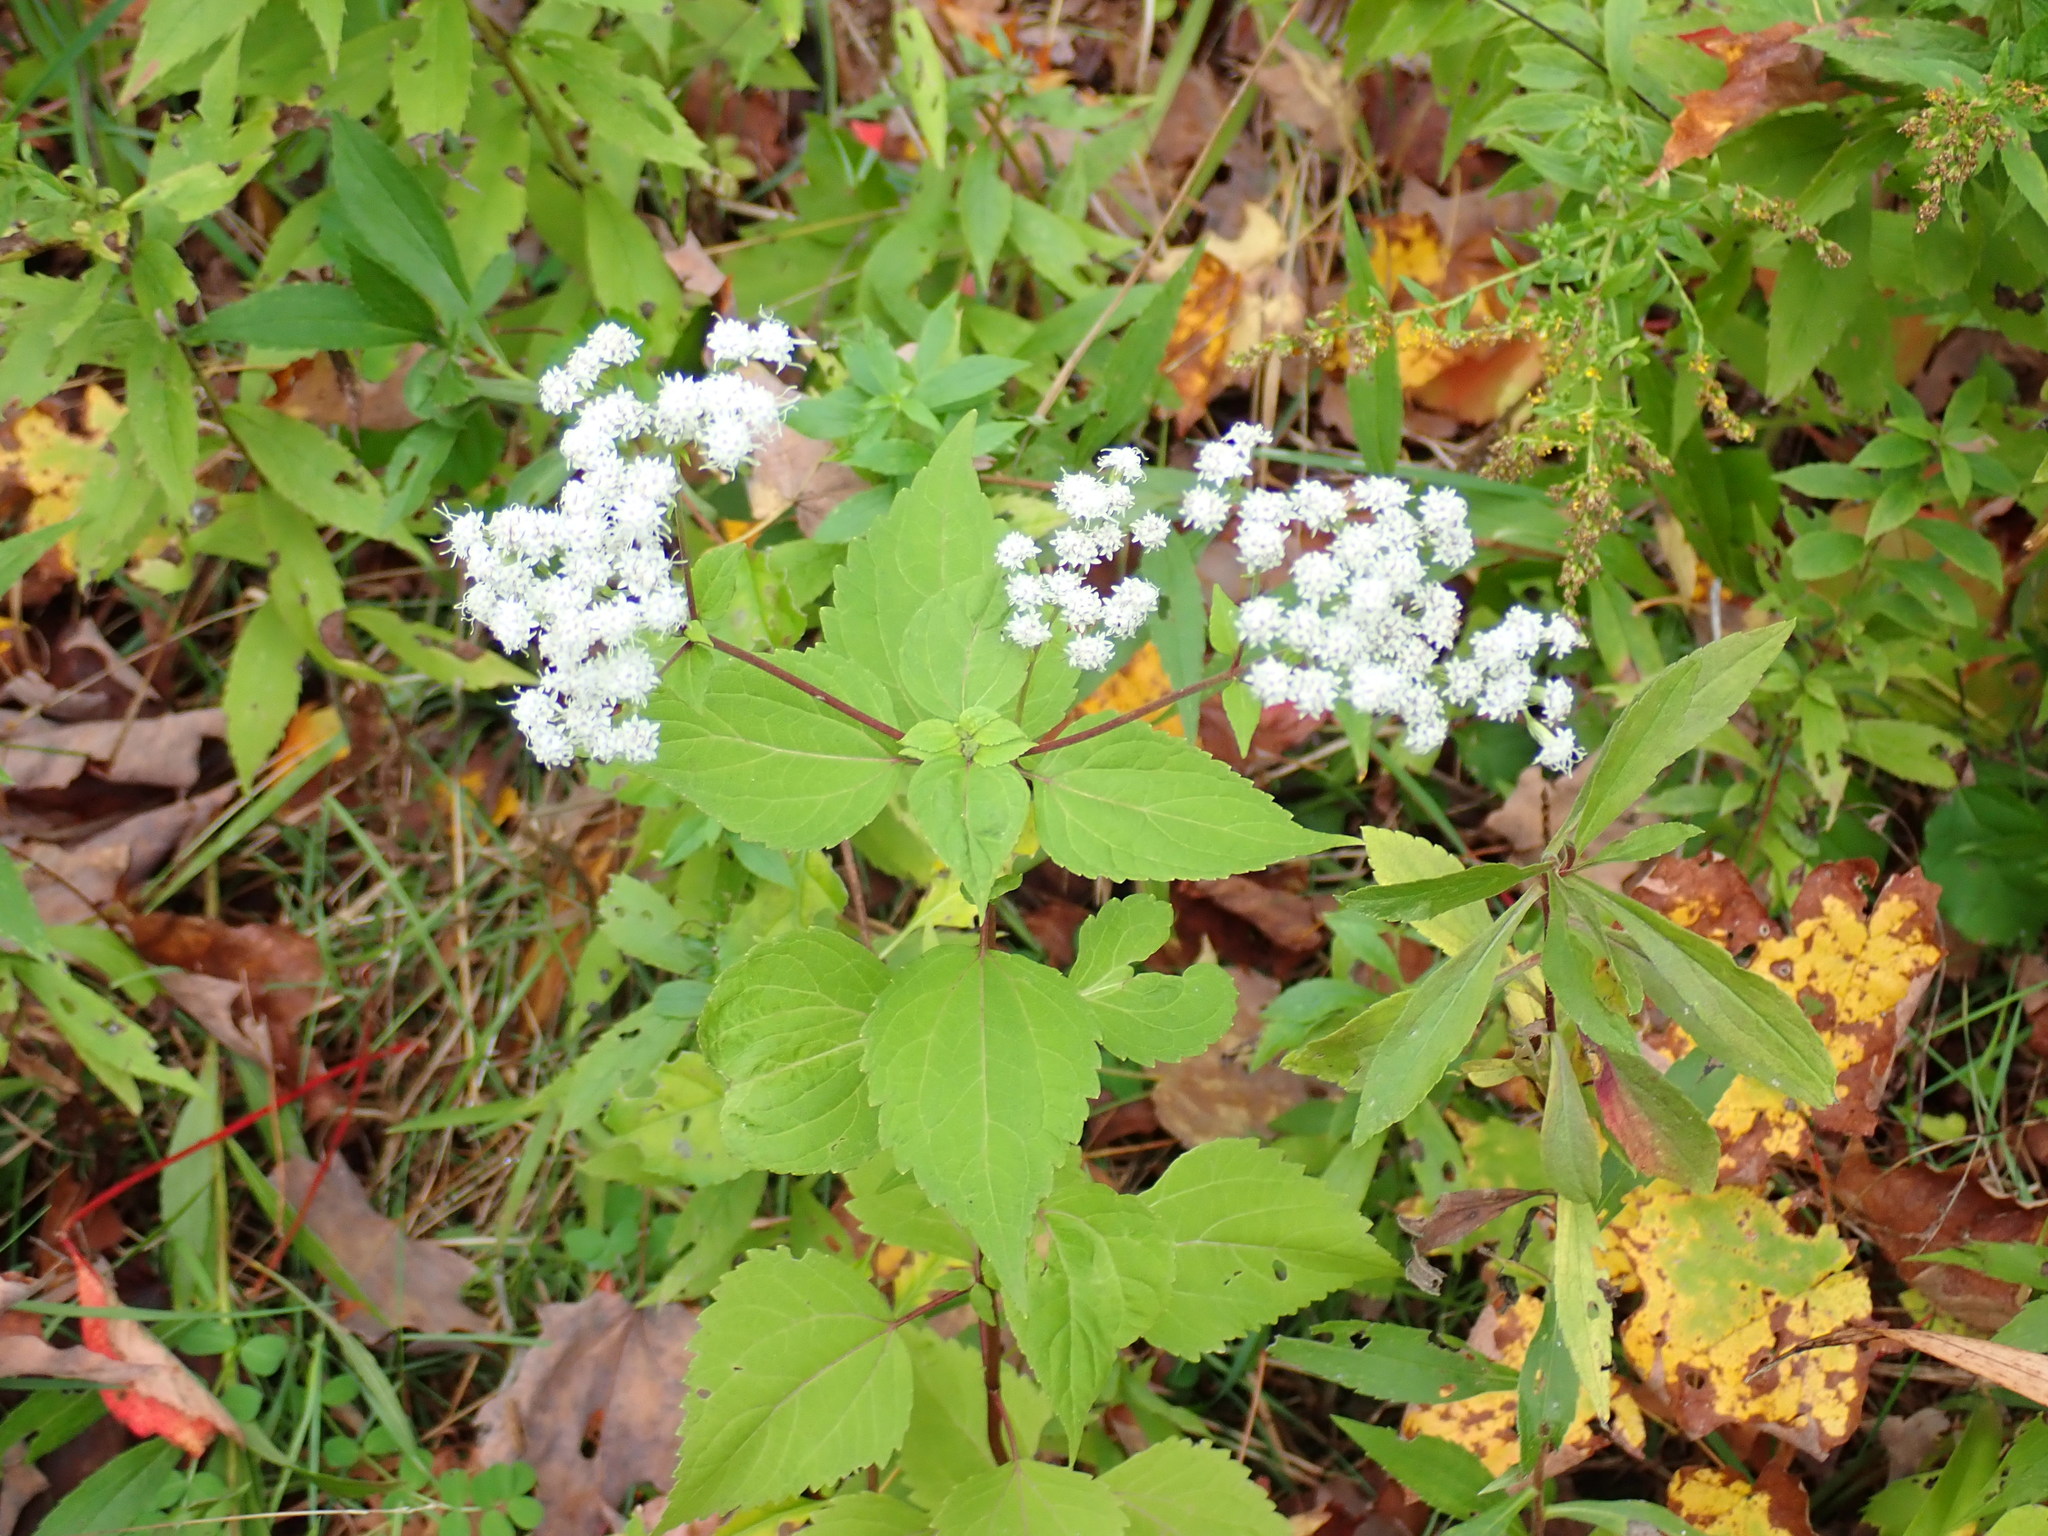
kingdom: Plantae
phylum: Tracheophyta
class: Magnoliopsida
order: Asterales
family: Asteraceae
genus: Ageratina
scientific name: Ageratina altissima
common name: White snakeroot
